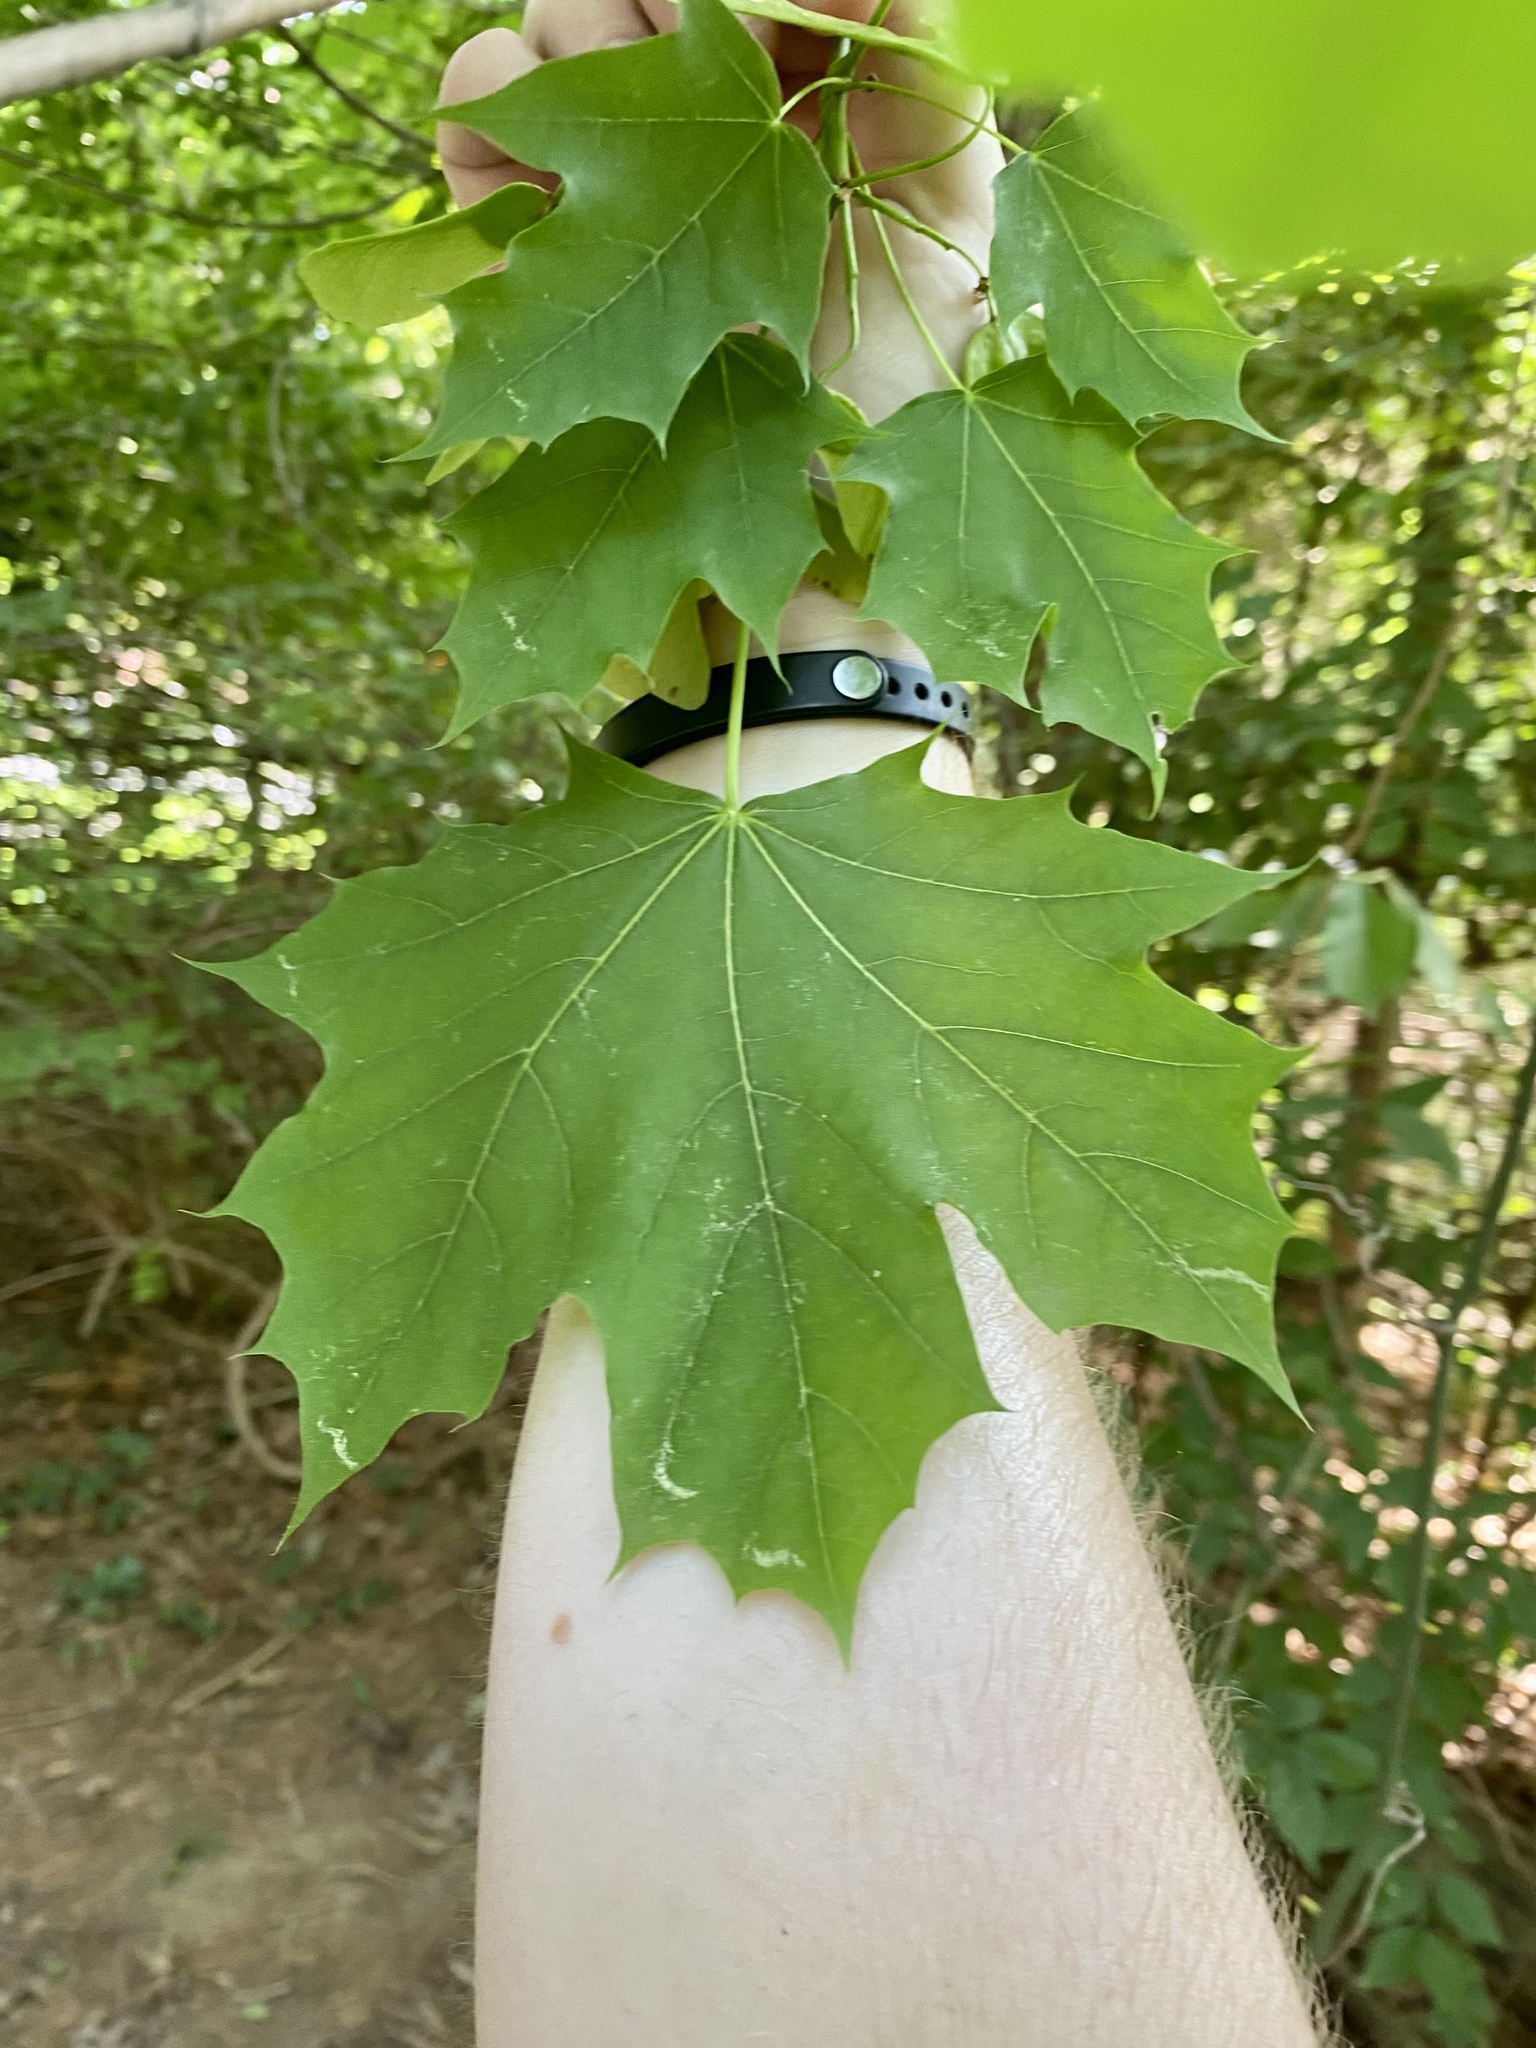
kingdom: Plantae
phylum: Tracheophyta
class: Magnoliopsida
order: Sapindales
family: Sapindaceae
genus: Acer
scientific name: Acer platanoides
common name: Norway maple
